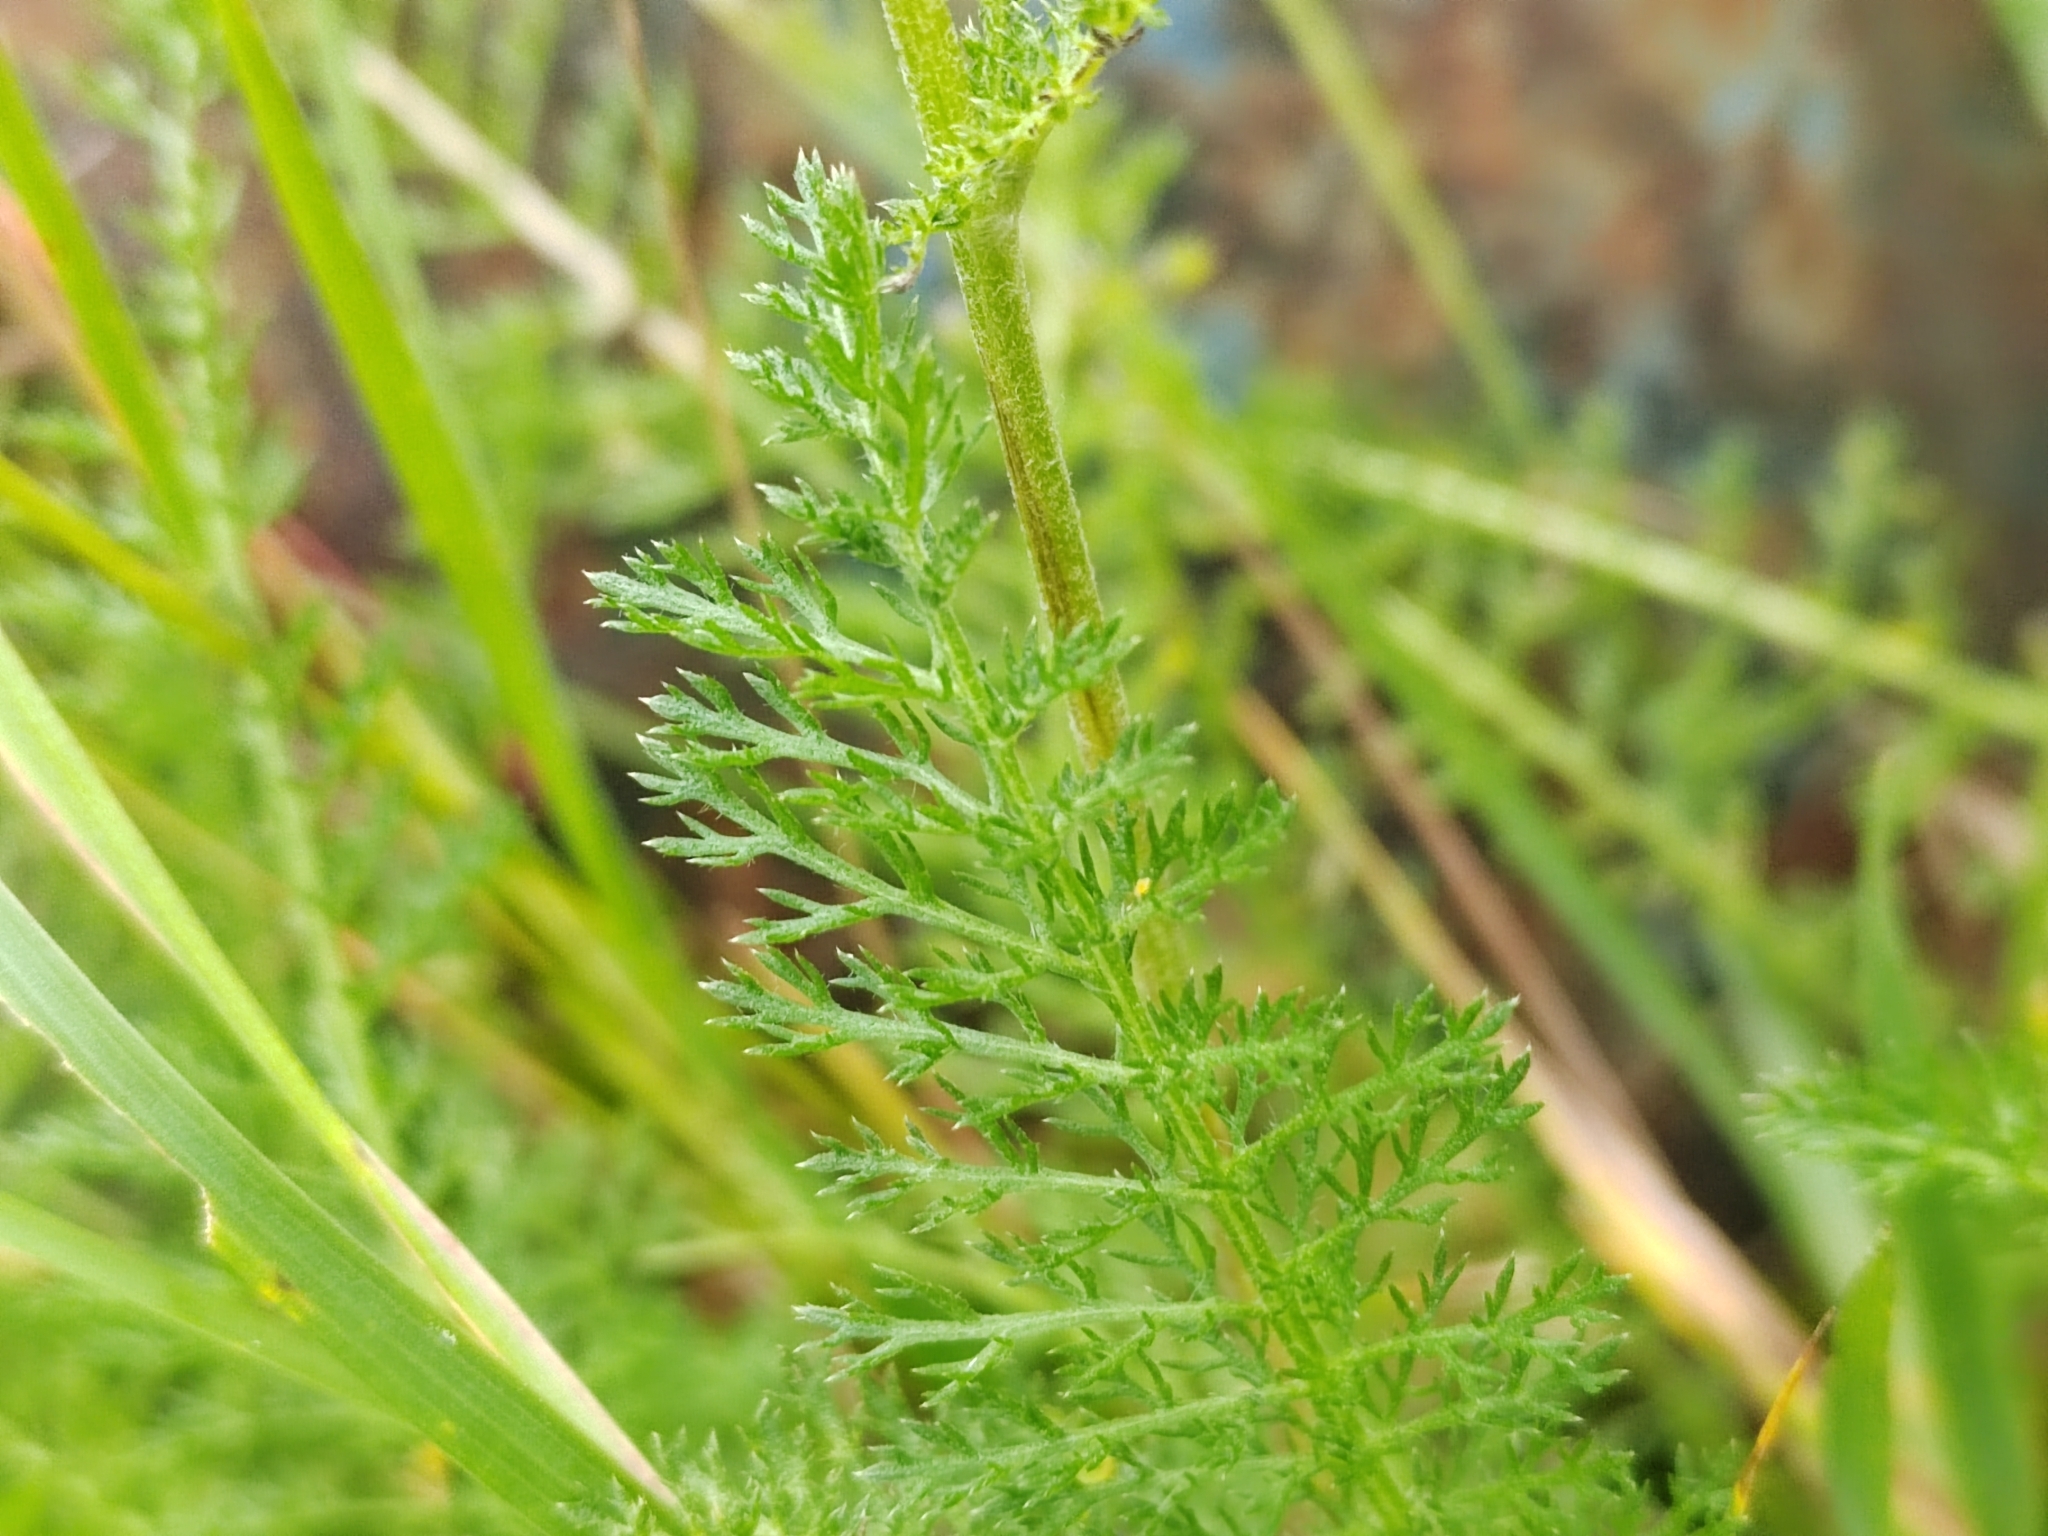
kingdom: Plantae
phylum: Tracheophyta
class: Magnoliopsida
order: Asterales
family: Asteraceae
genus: Achillea
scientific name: Achillea millefolium
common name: Yarrow
